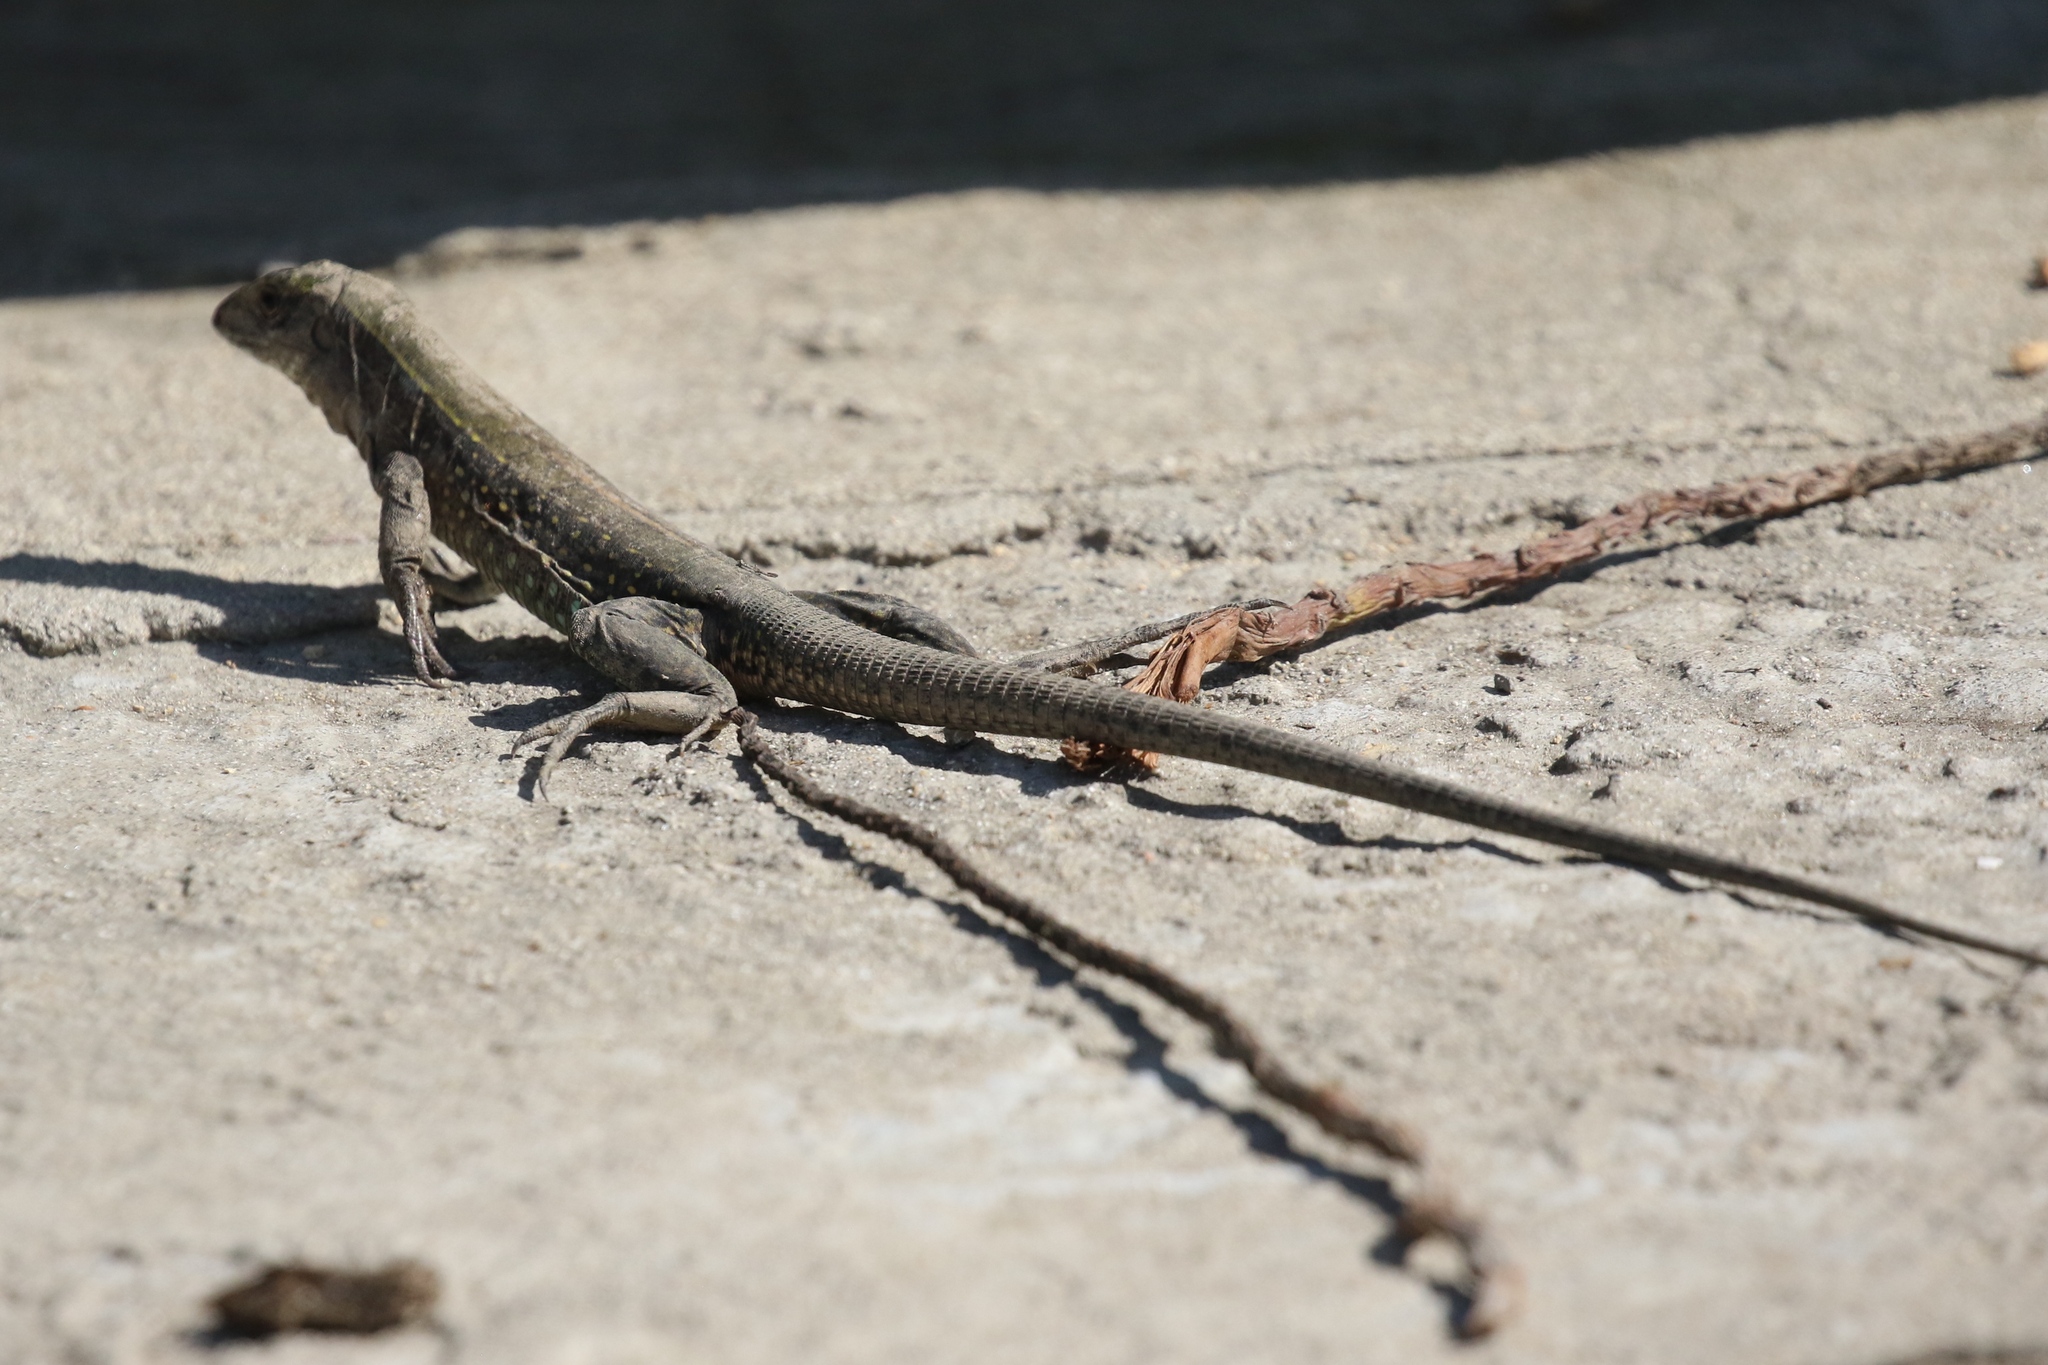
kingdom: Animalia
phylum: Chordata
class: Squamata
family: Teiidae
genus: Ameiva
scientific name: Ameiva praesignis
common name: Giant ameiva
